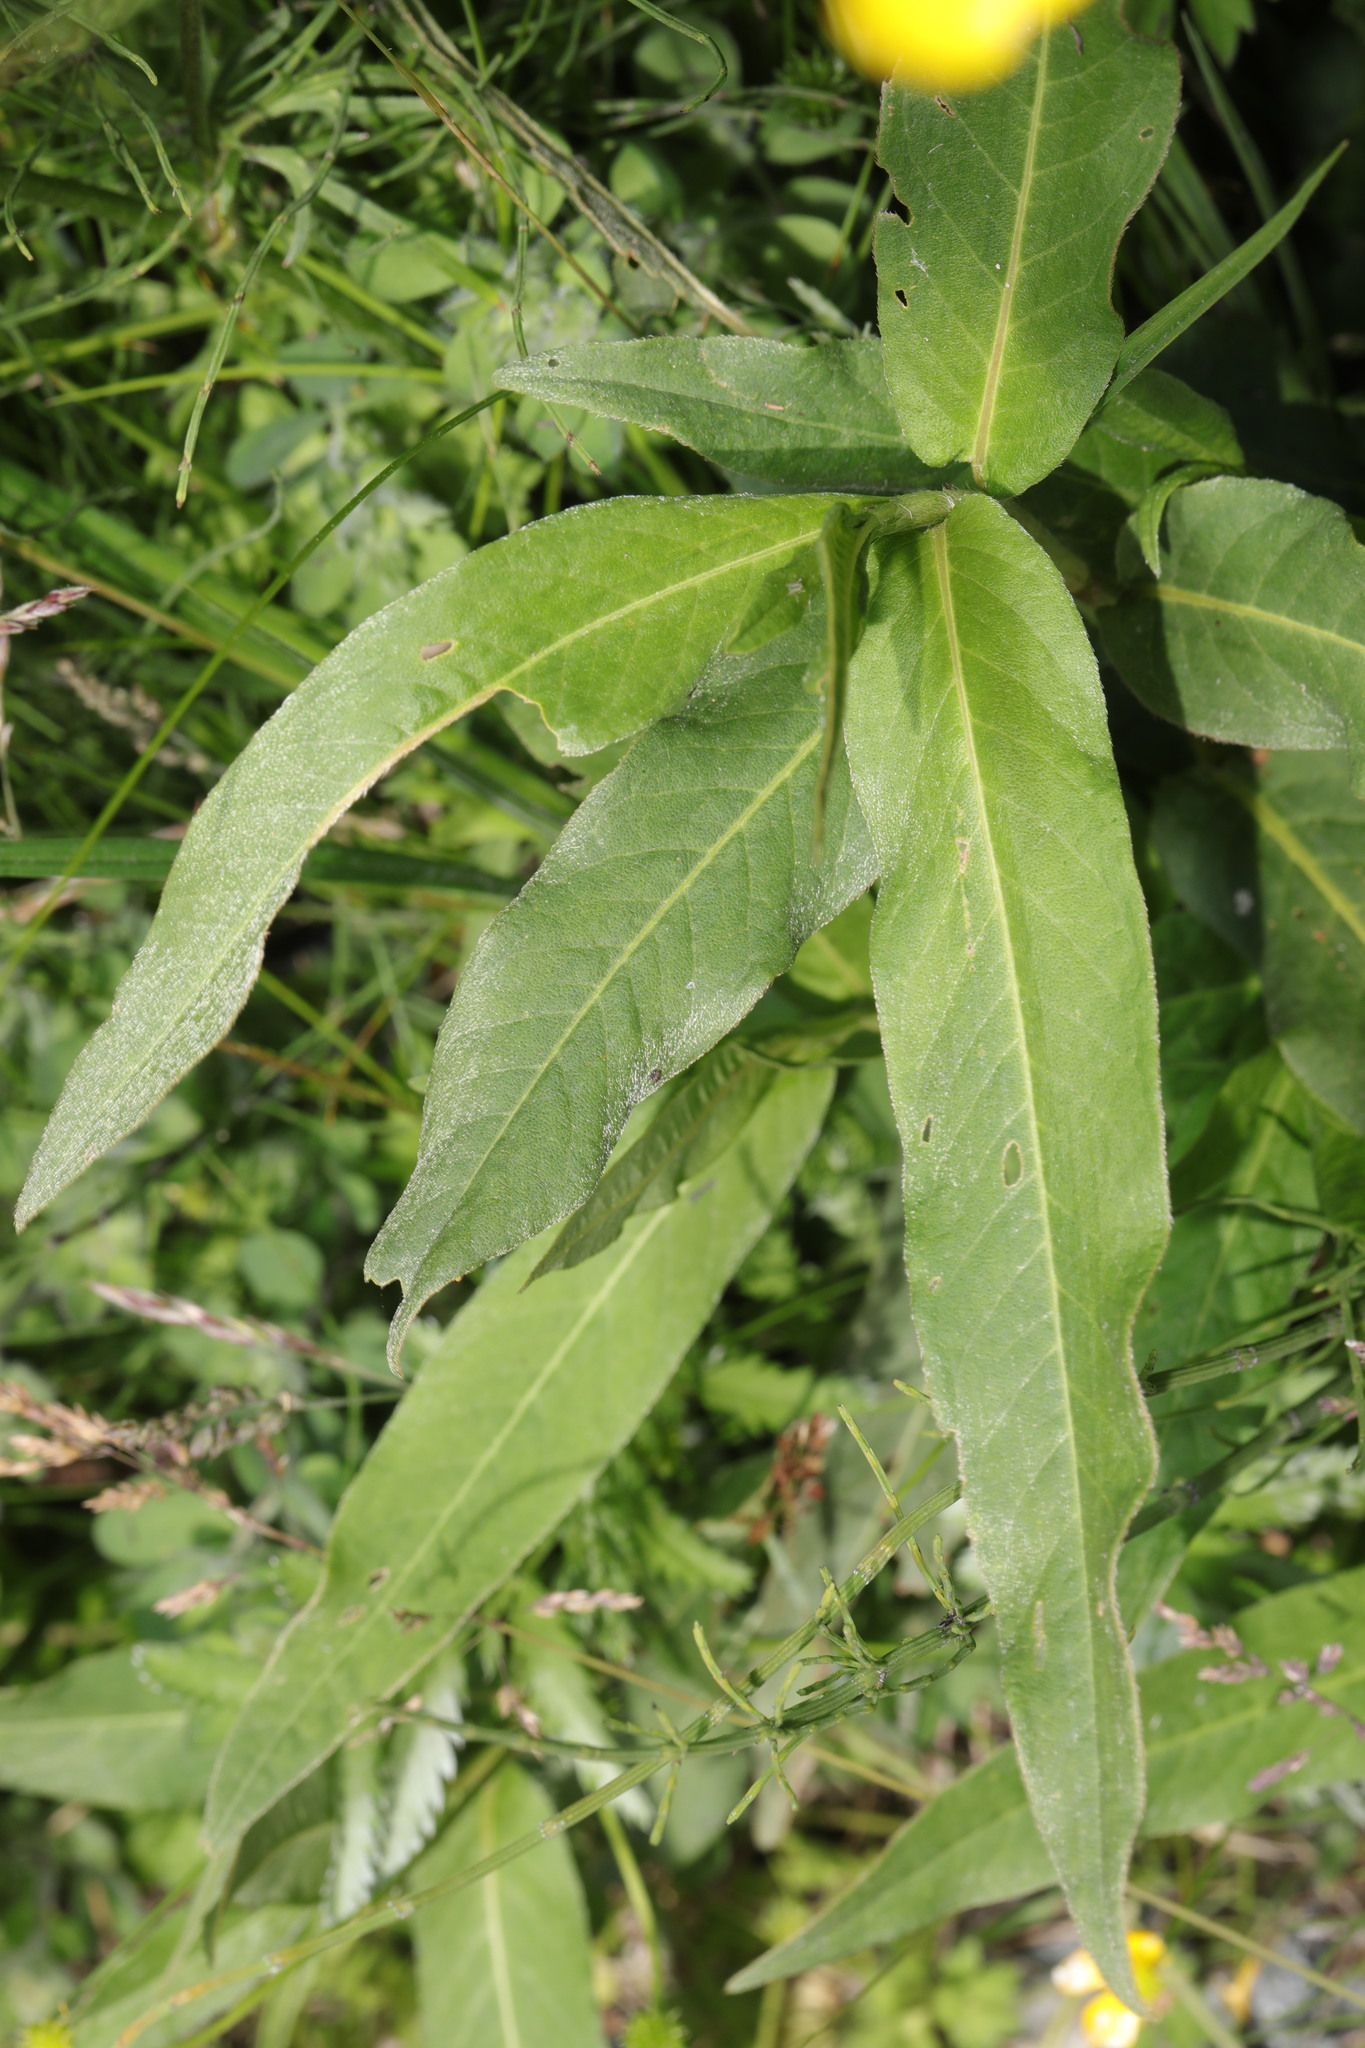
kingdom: Plantae
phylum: Tracheophyta
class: Magnoliopsida
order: Caryophyllales
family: Polygonaceae
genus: Persicaria
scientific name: Persicaria amphibia
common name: Amphibious bistort
